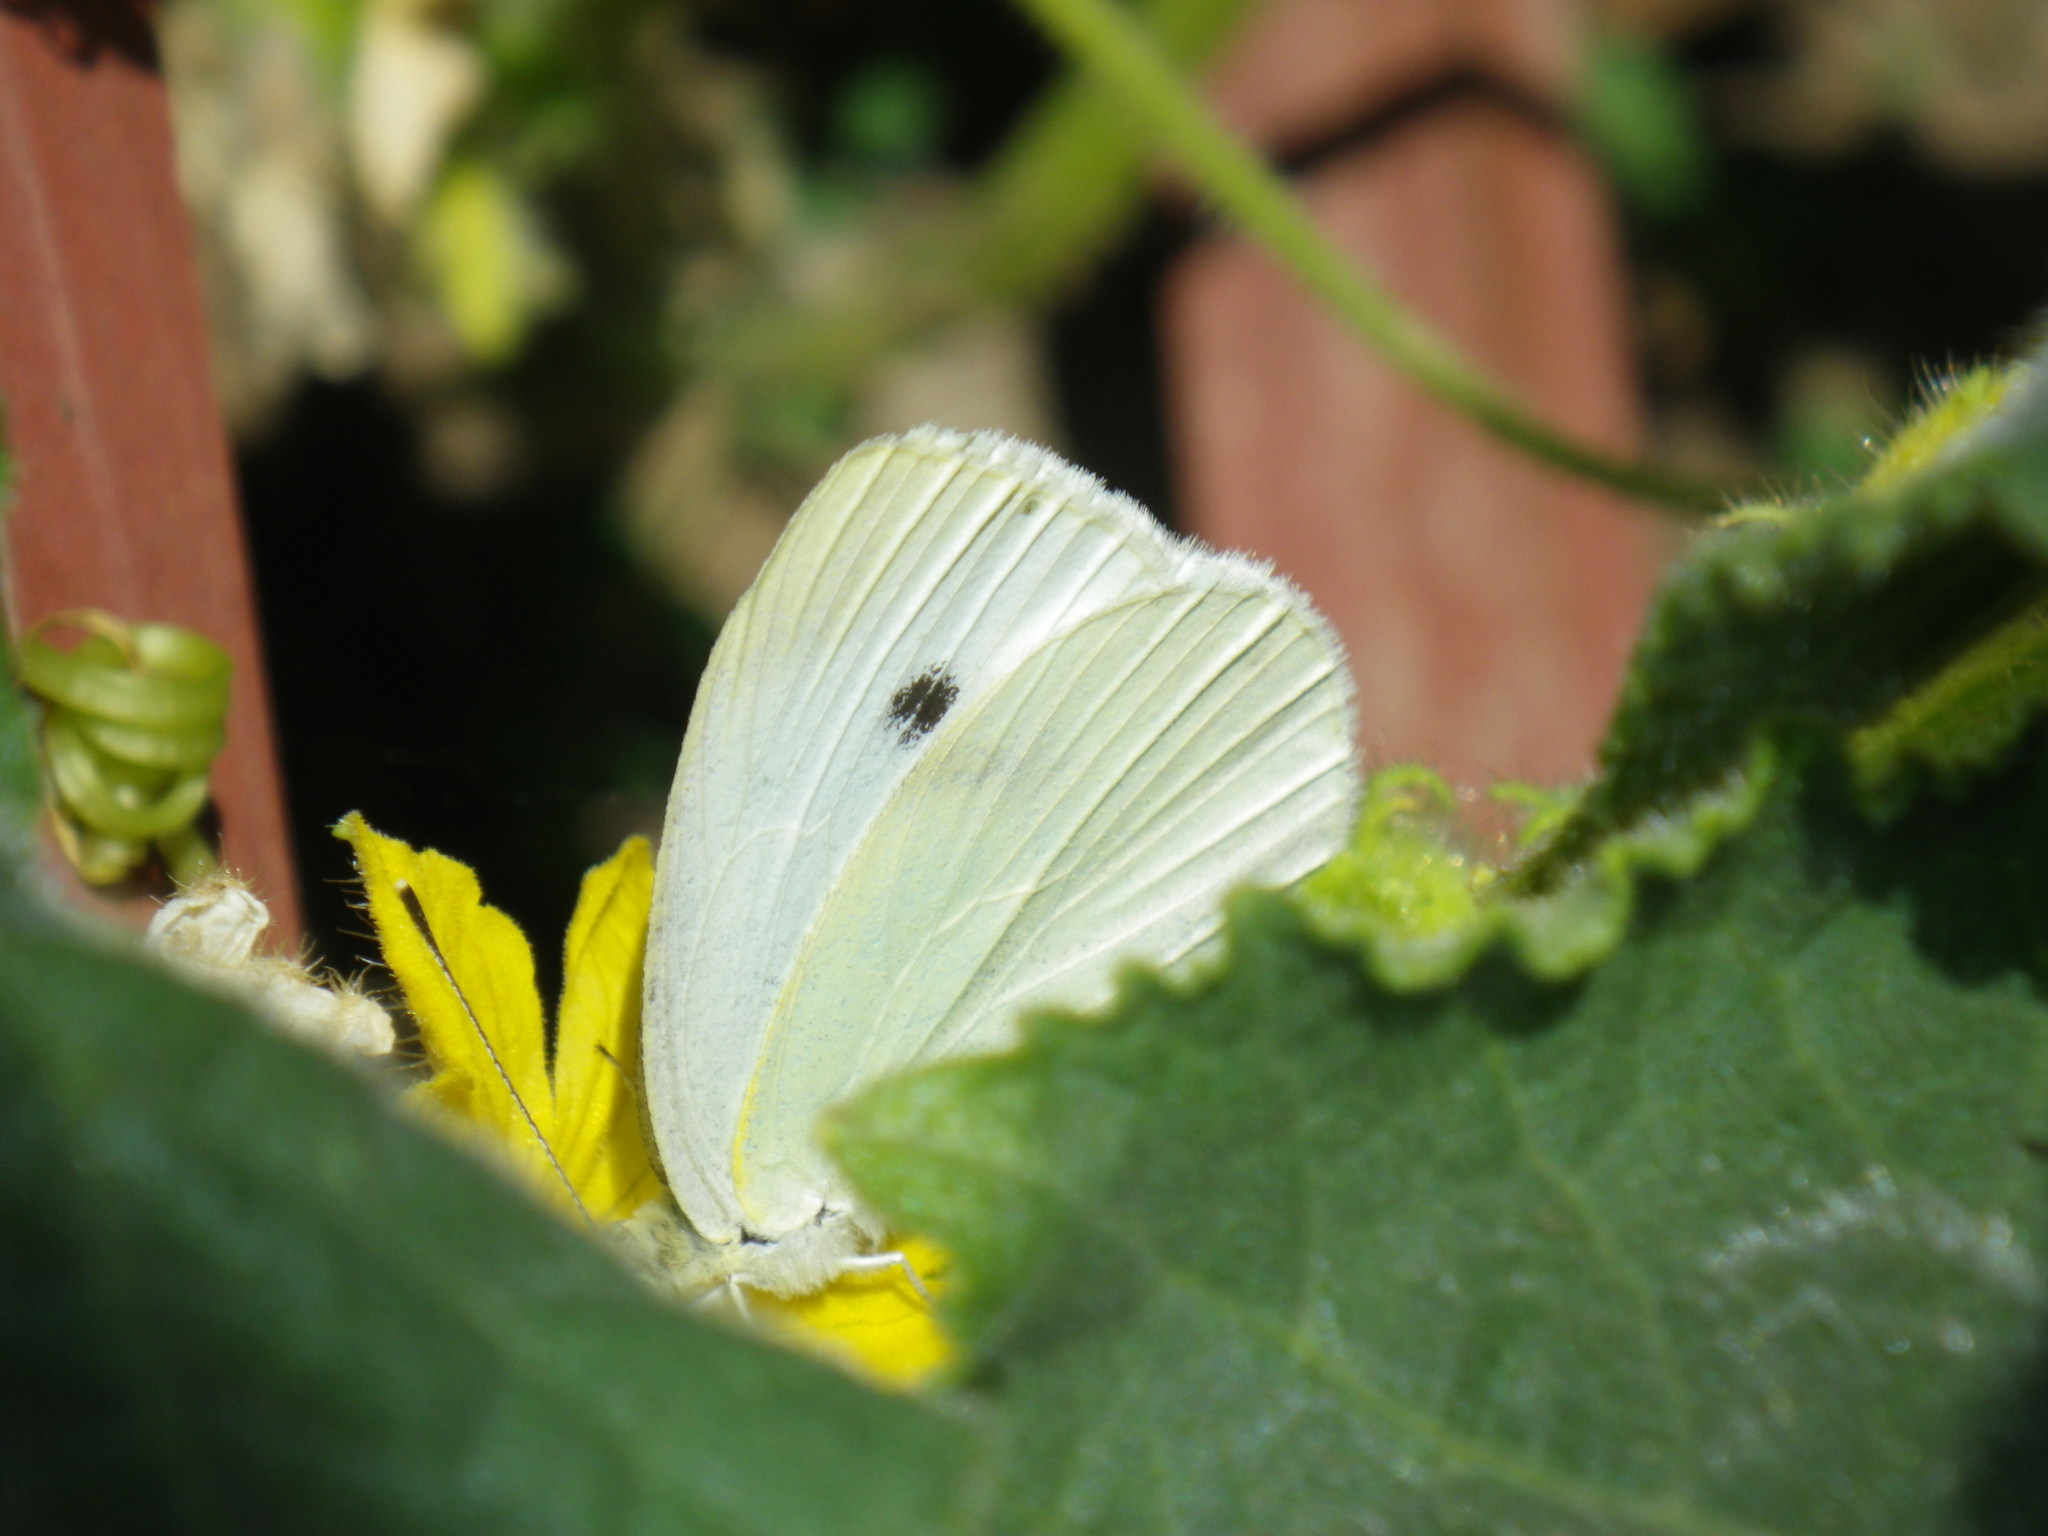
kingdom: Animalia
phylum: Arthropoda
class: Insecta
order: Lepidoptera
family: Pieridae
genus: Pieris
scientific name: Pieris rapae
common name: Small white
